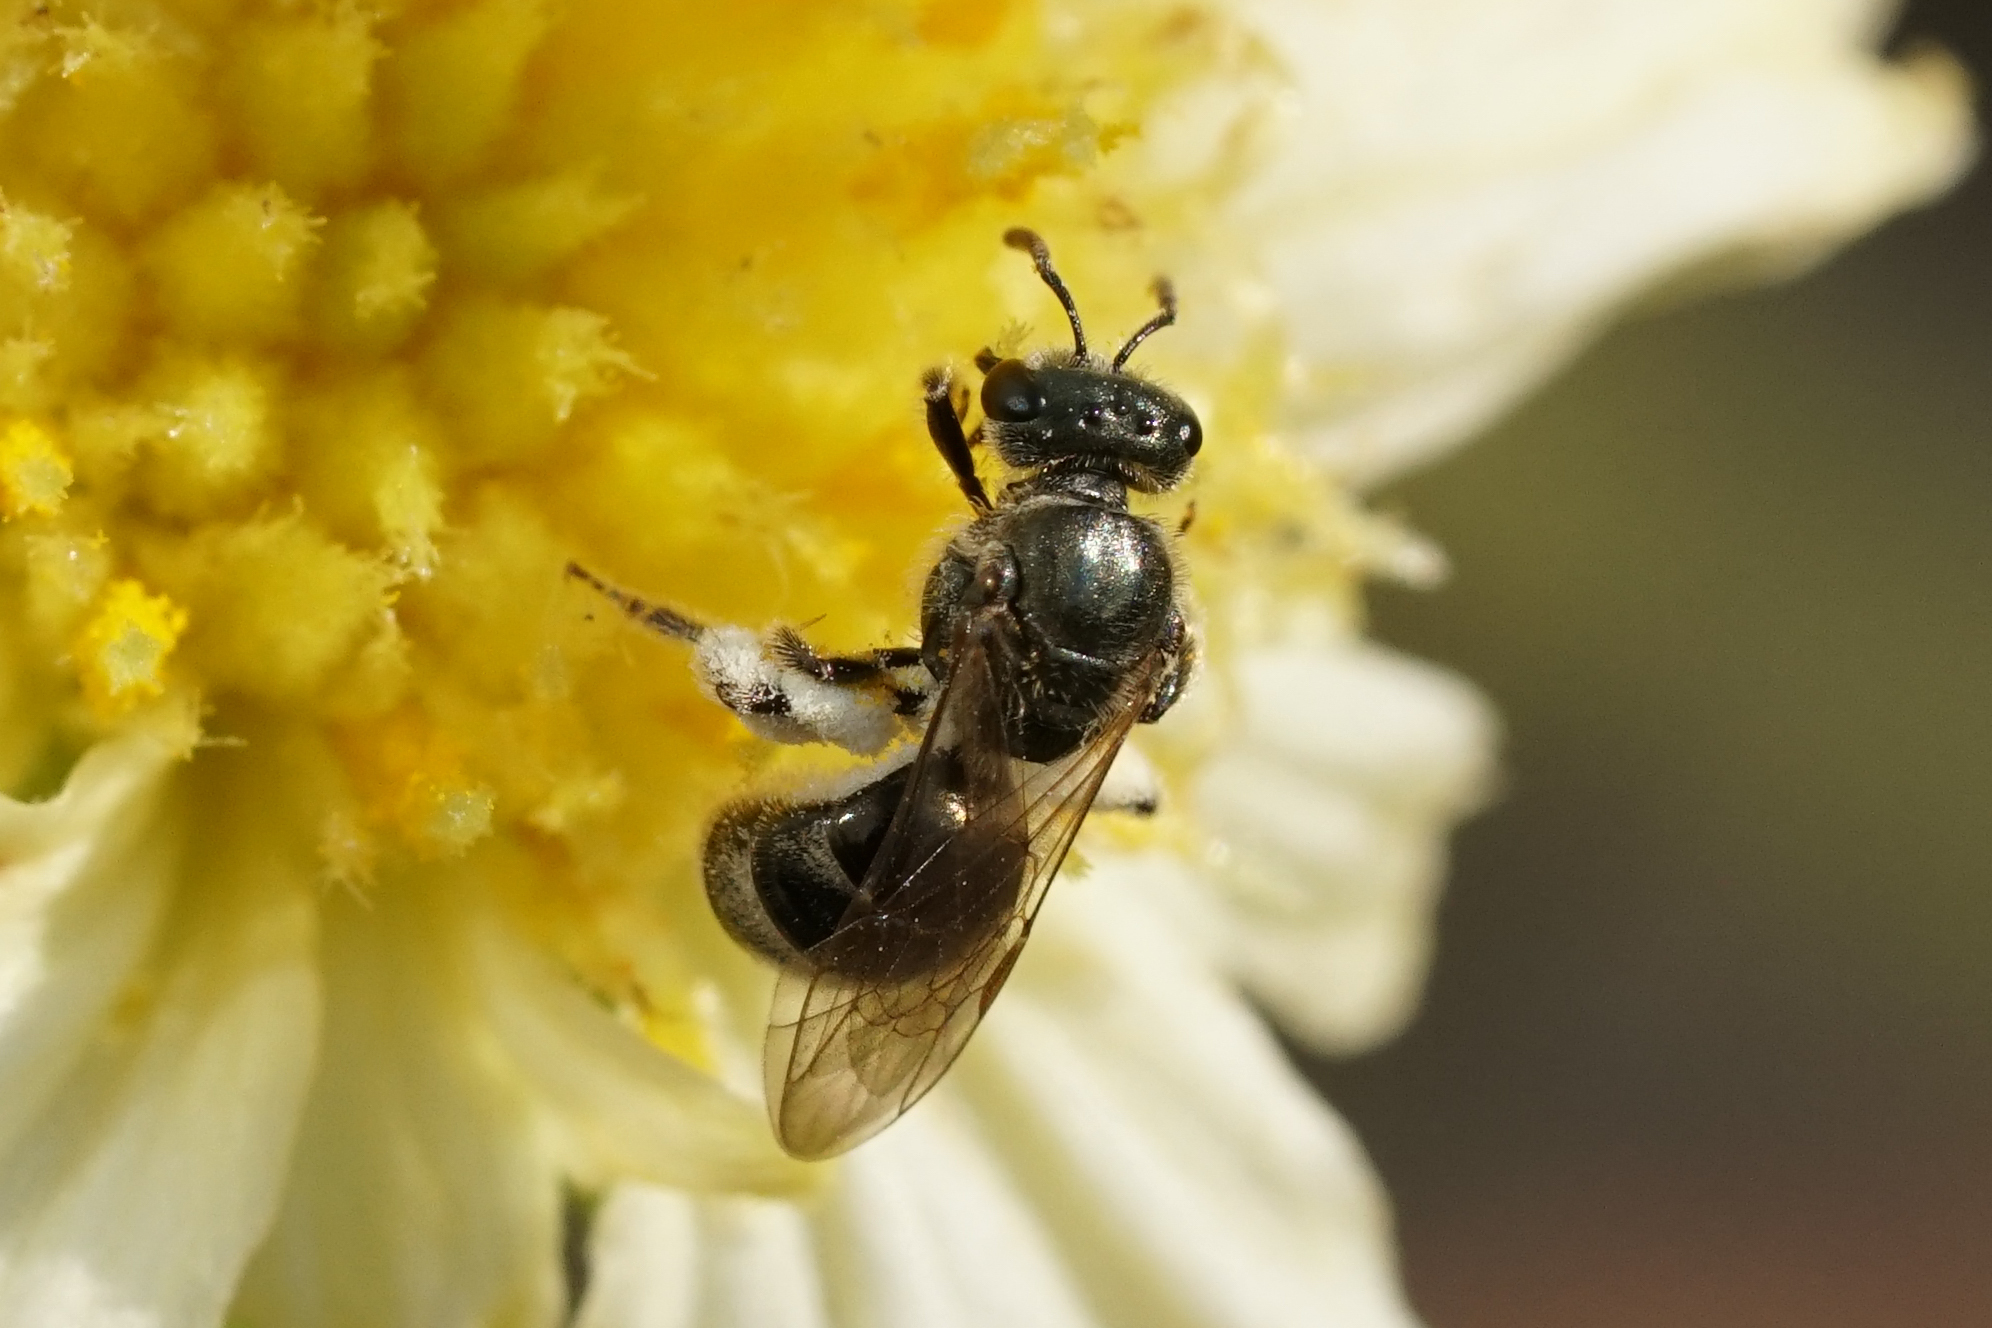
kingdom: Animalia
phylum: Arthropoda
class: Insecta
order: Hymenoptera
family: Halictidae
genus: Dialictus
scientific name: Dialictus
